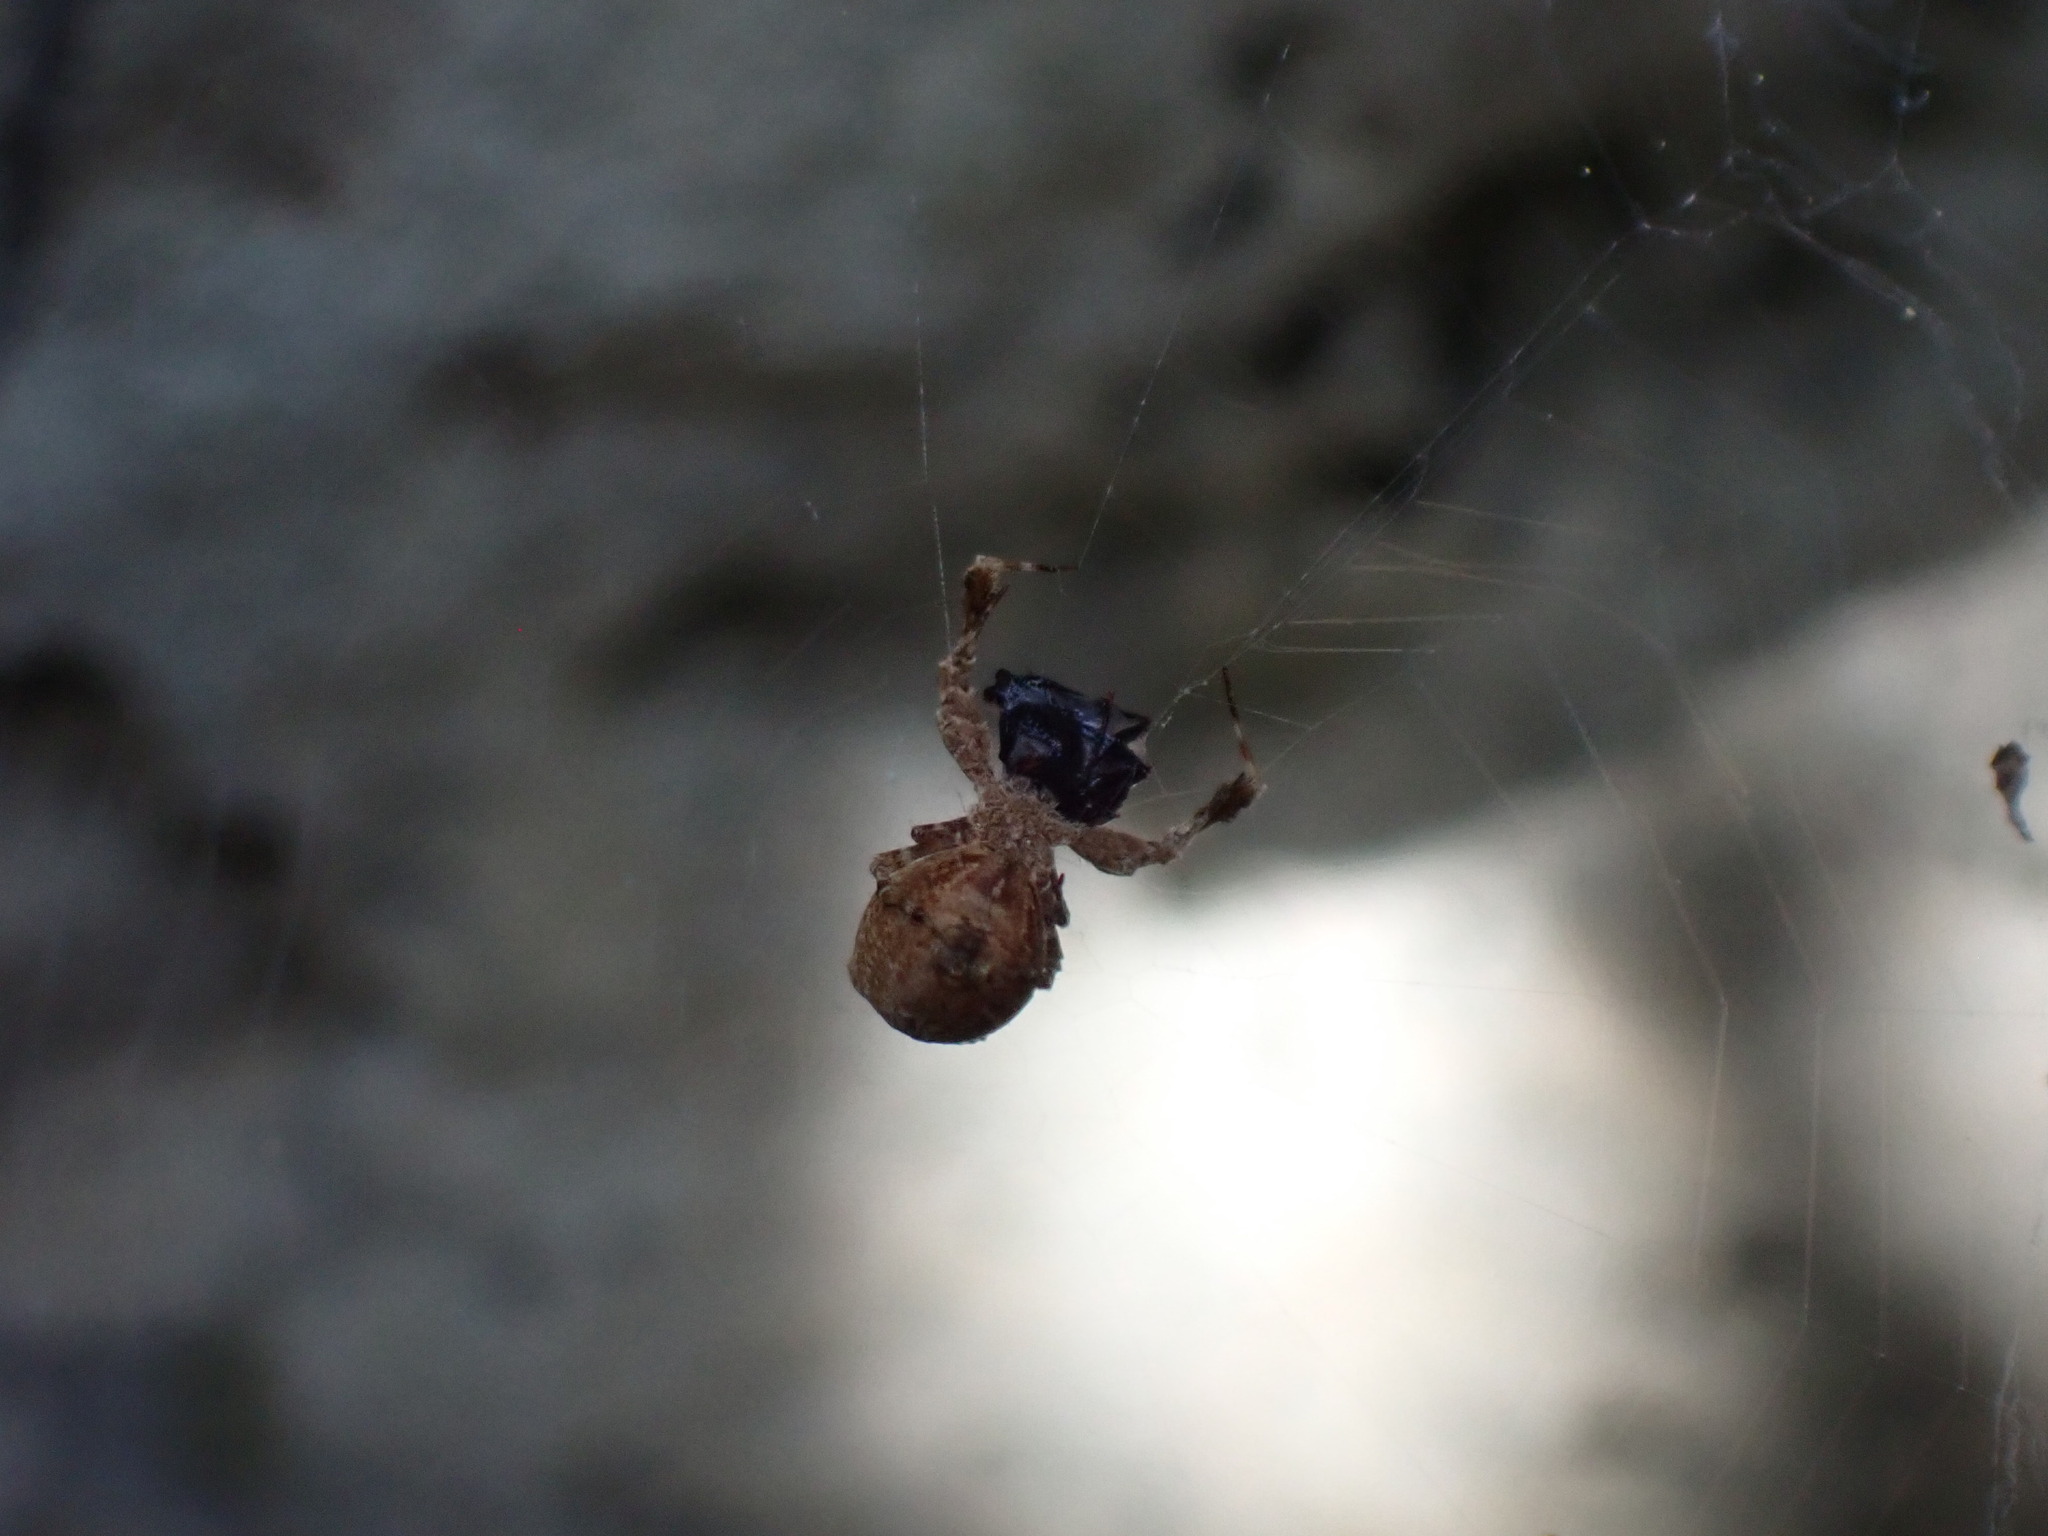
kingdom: Animalia
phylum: Arthropoda
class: Arachnida
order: Araneae
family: Uloboridae
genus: Uloborus
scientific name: Uloborus plumipes
